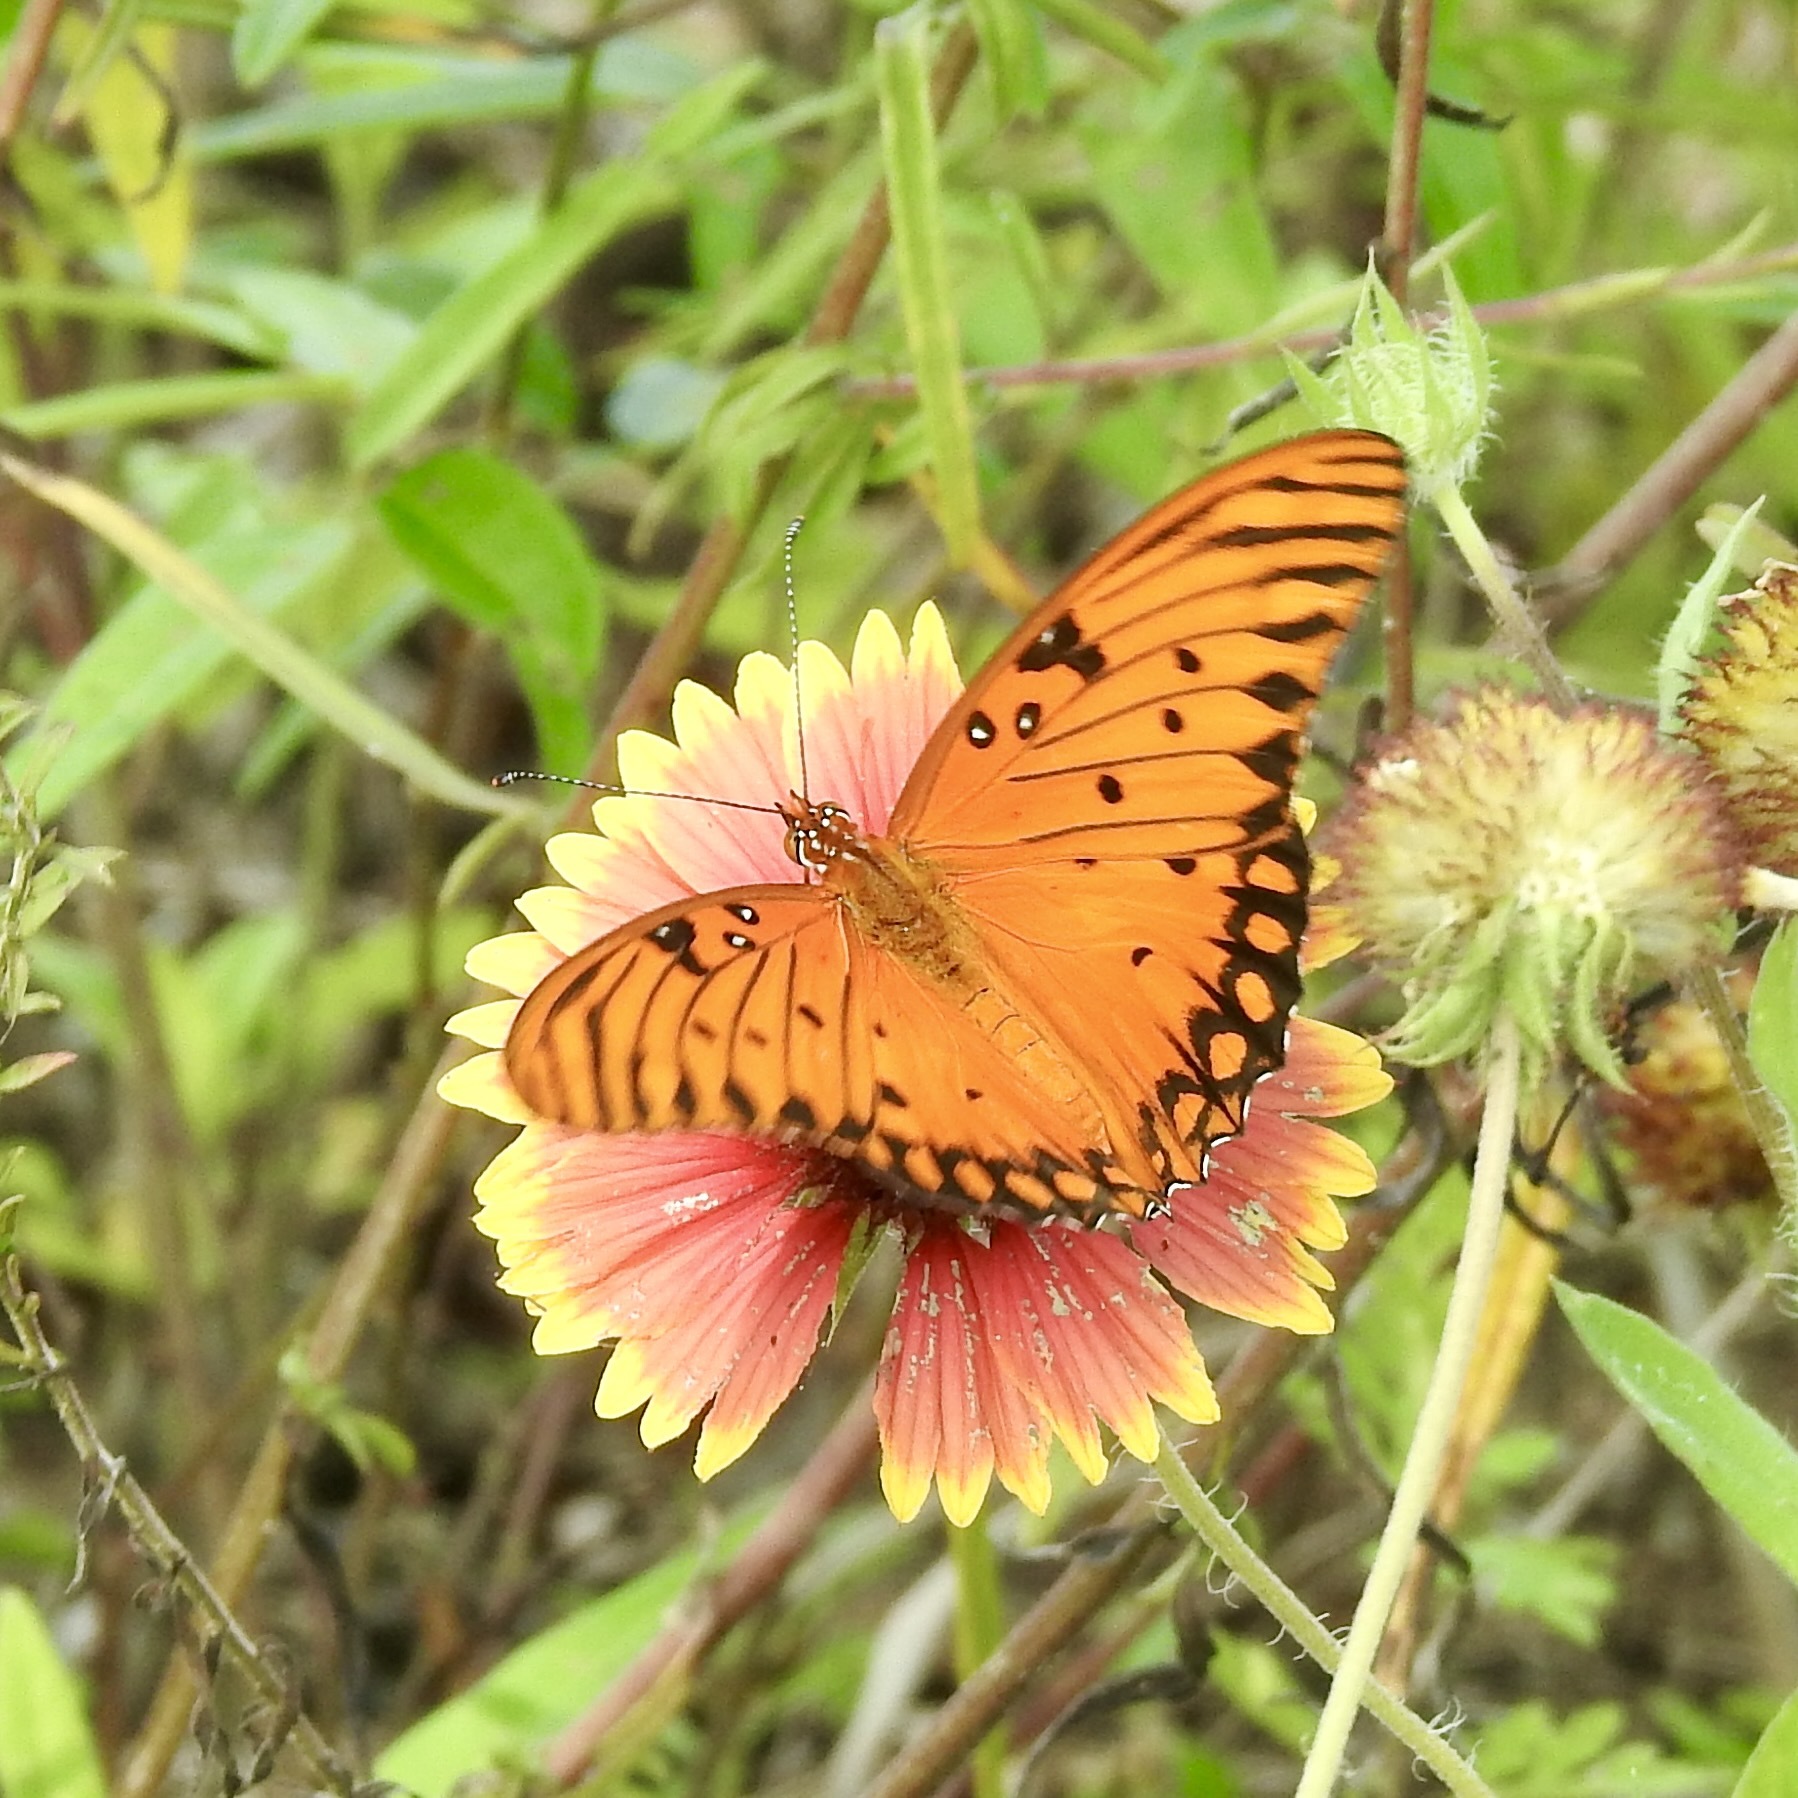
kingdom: Animalia
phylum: Arthropoda
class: Insecta
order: Lepidoptera
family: Nymphalidae
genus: Dione
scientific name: Dione vanillae
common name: Gulf fritillary
